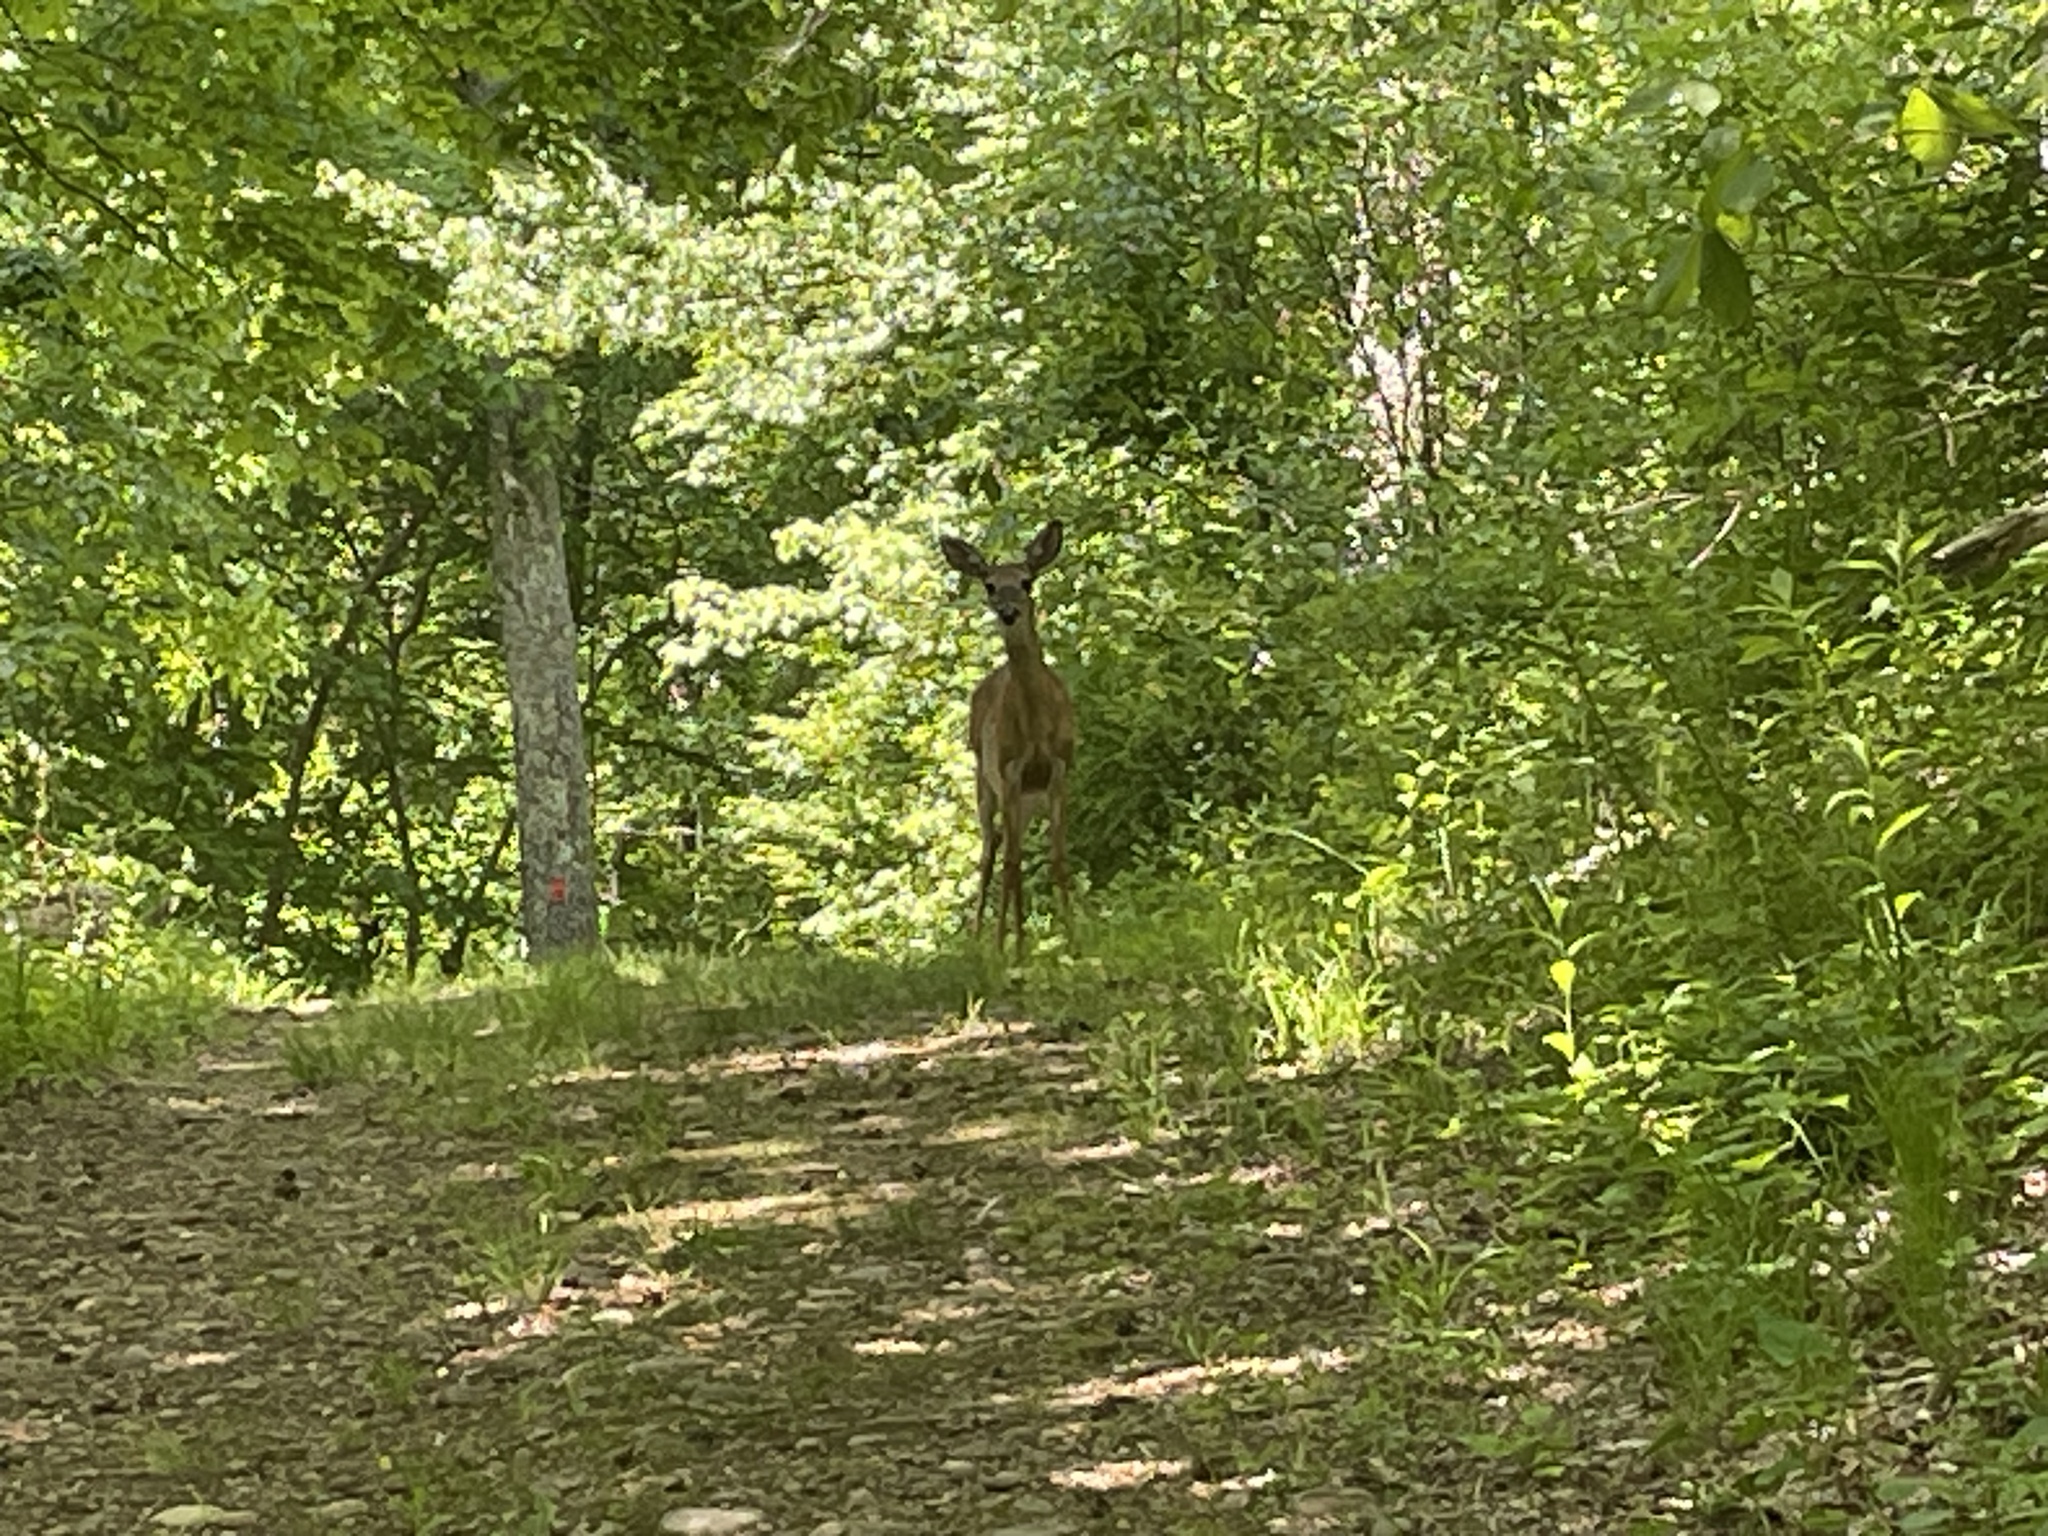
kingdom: Animalia
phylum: Chordata
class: Mammalia
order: Artiodactyla
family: Cervidae
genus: Odocoileus
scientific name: Odocoileus virginianus
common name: White-tailed deer
